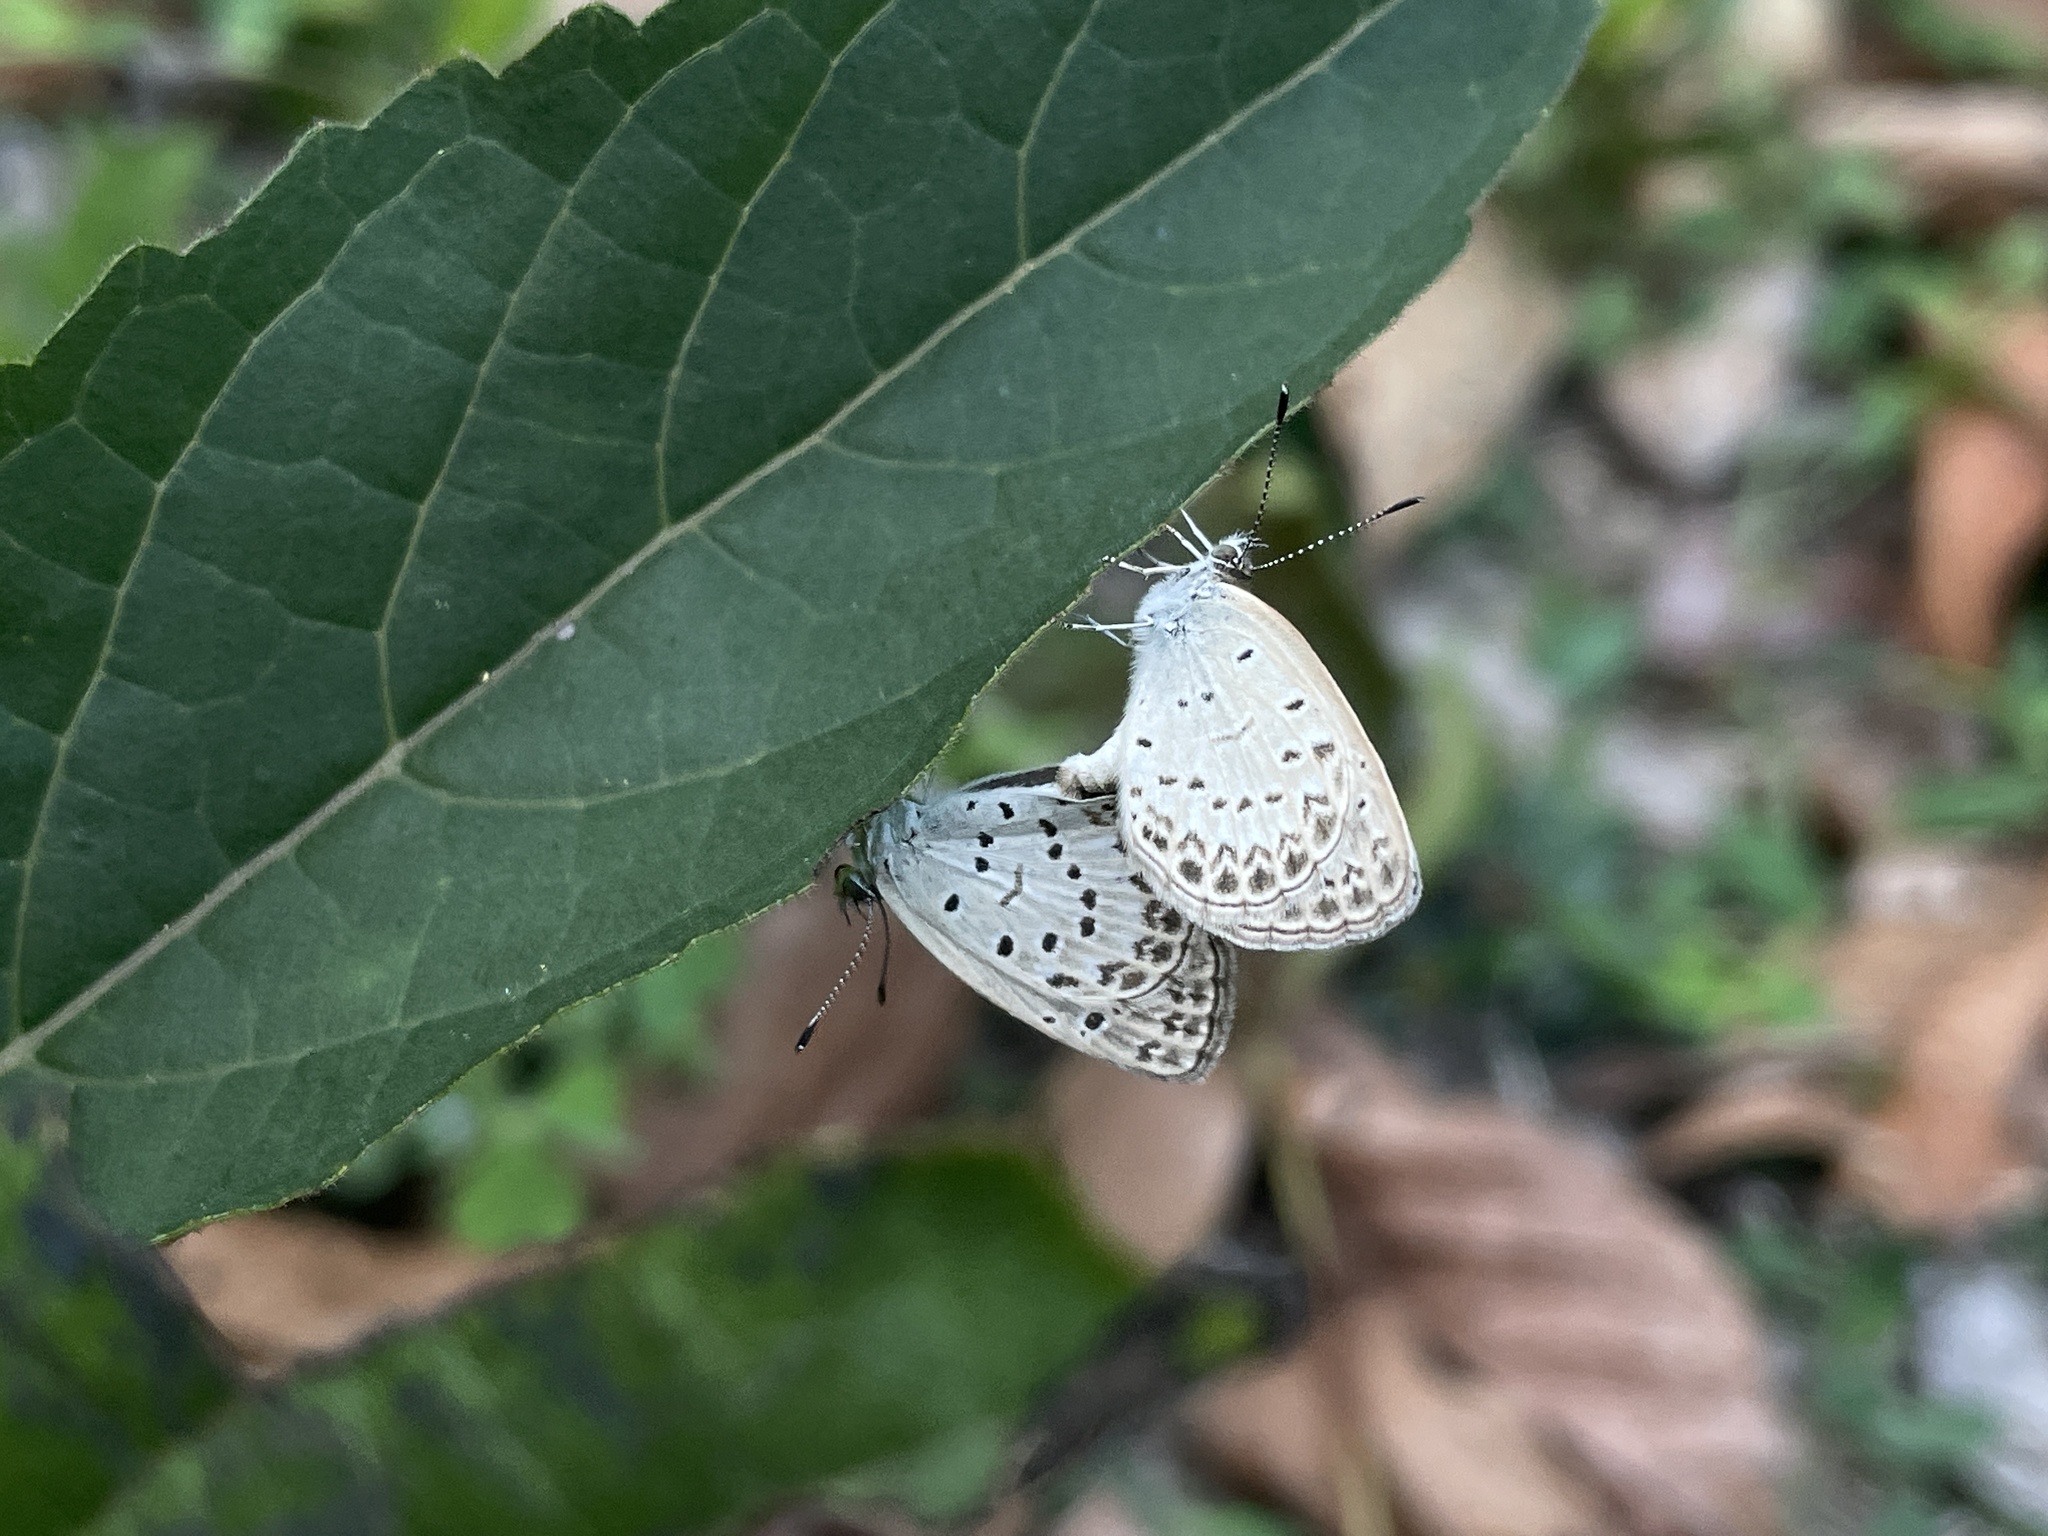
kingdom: Animalia
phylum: Arthropoda
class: Insecta
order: Lepidoptera
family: Lycaenidae
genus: Pseudozizeeria
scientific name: Pseudozizeeria maha
